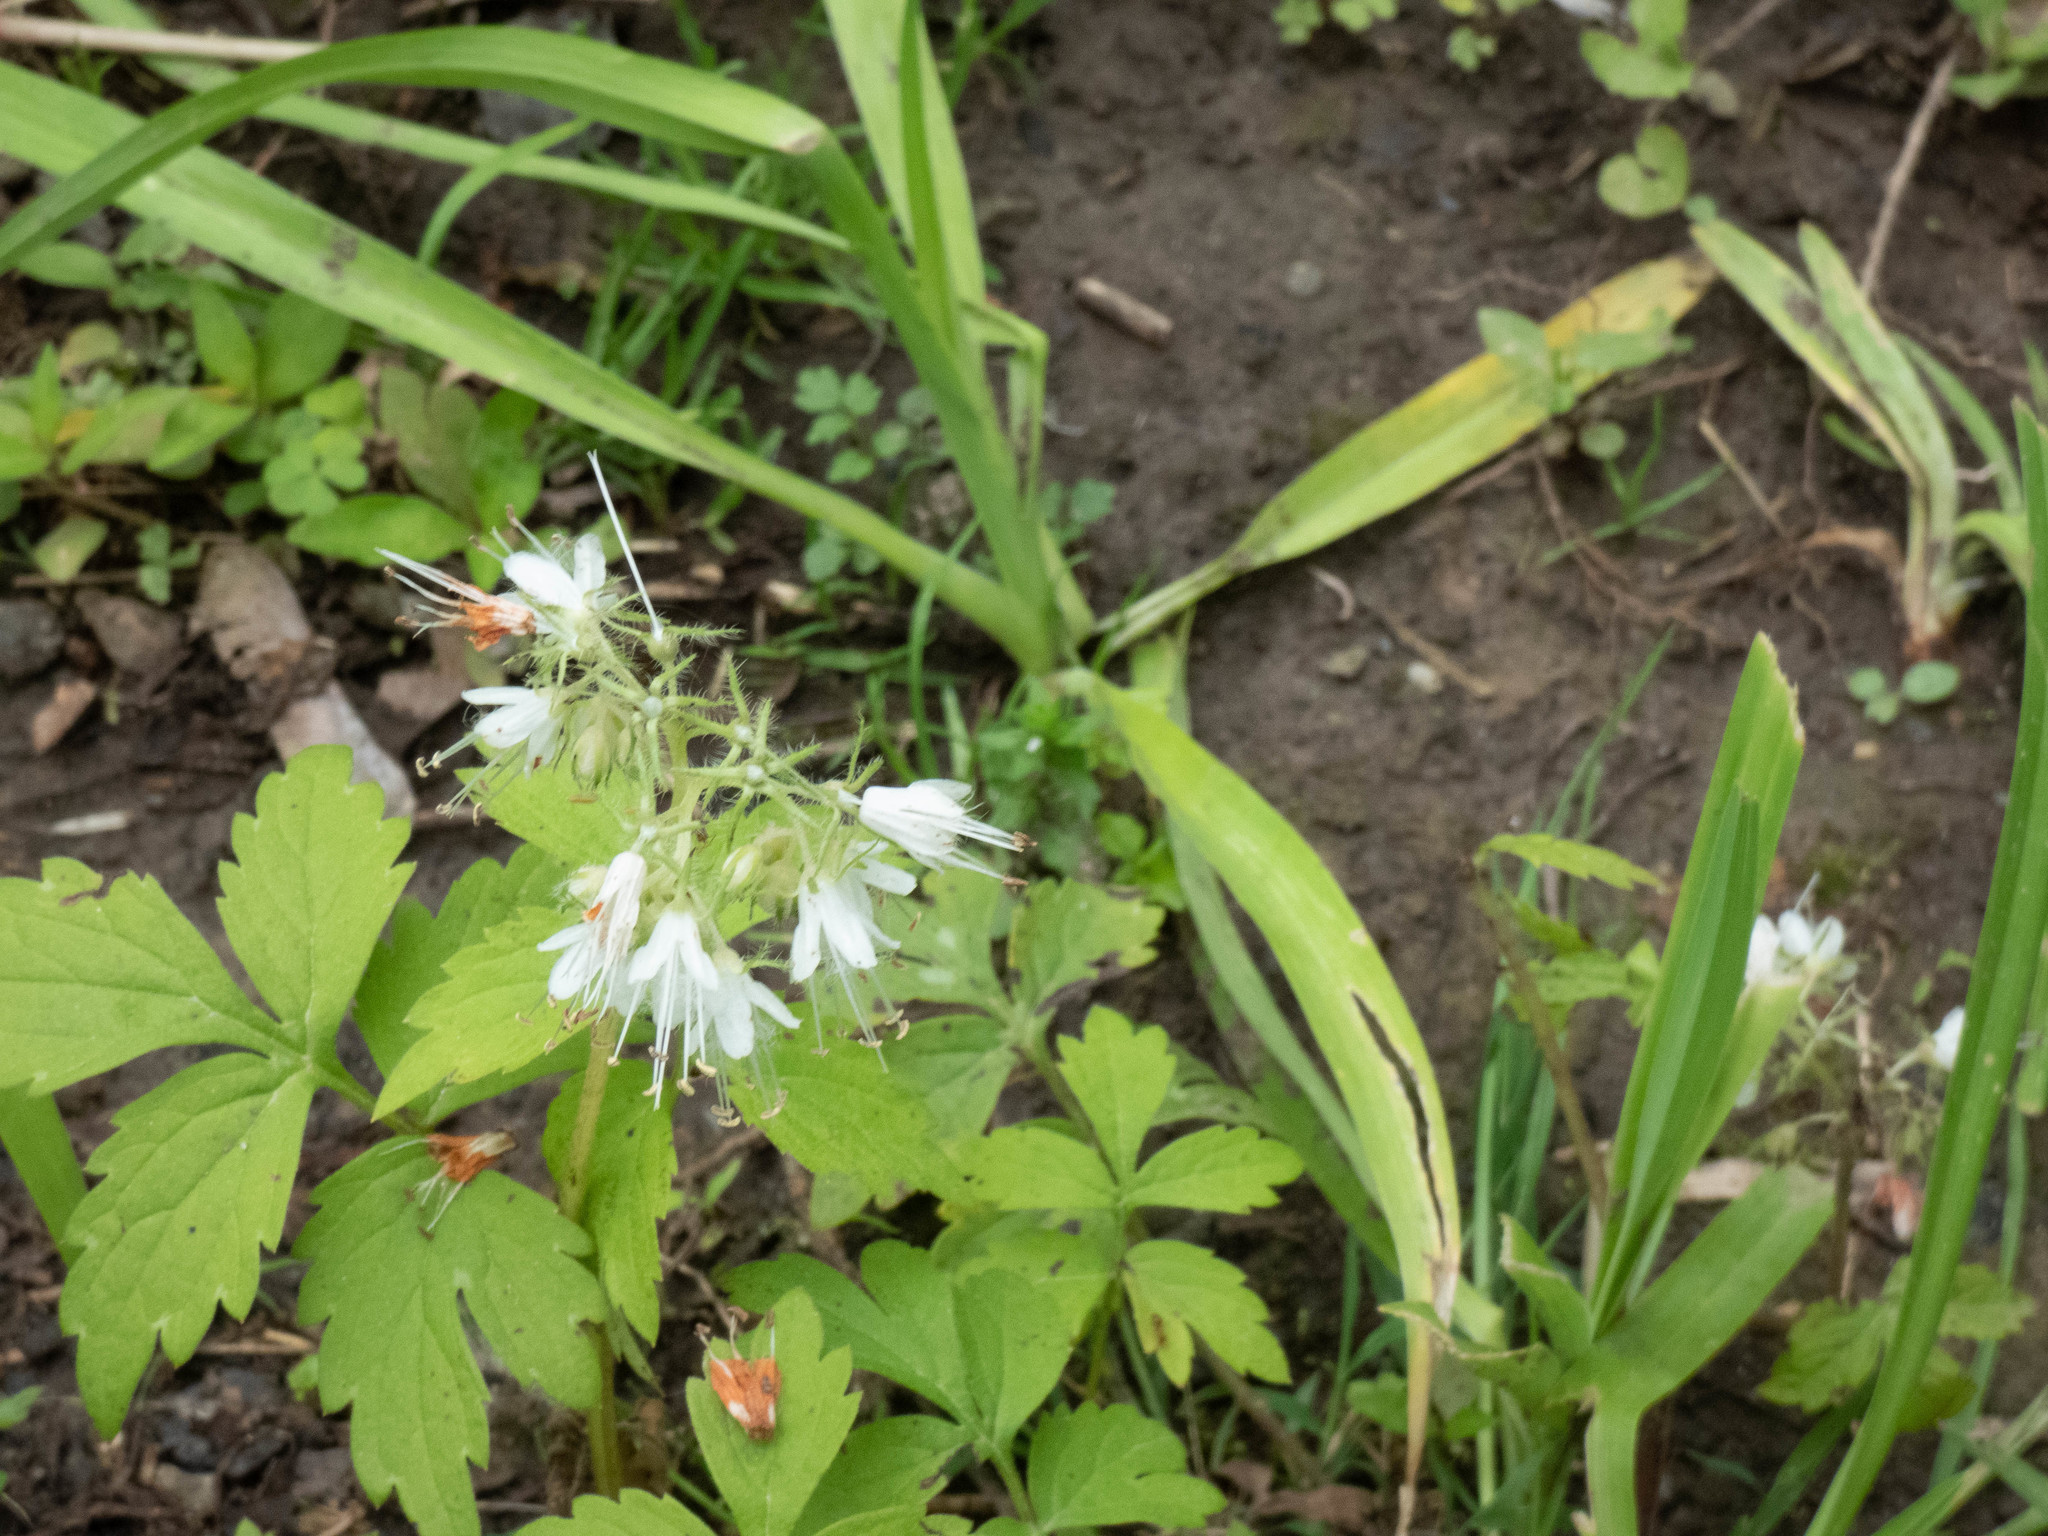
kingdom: Plantae
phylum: Tracheophyta
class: Magnoliopsida
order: Boraginales
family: Hydrophyllaceae
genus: Hydrophyllum
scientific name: Hydrophyllum virginianum
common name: Virginia waterleaf
